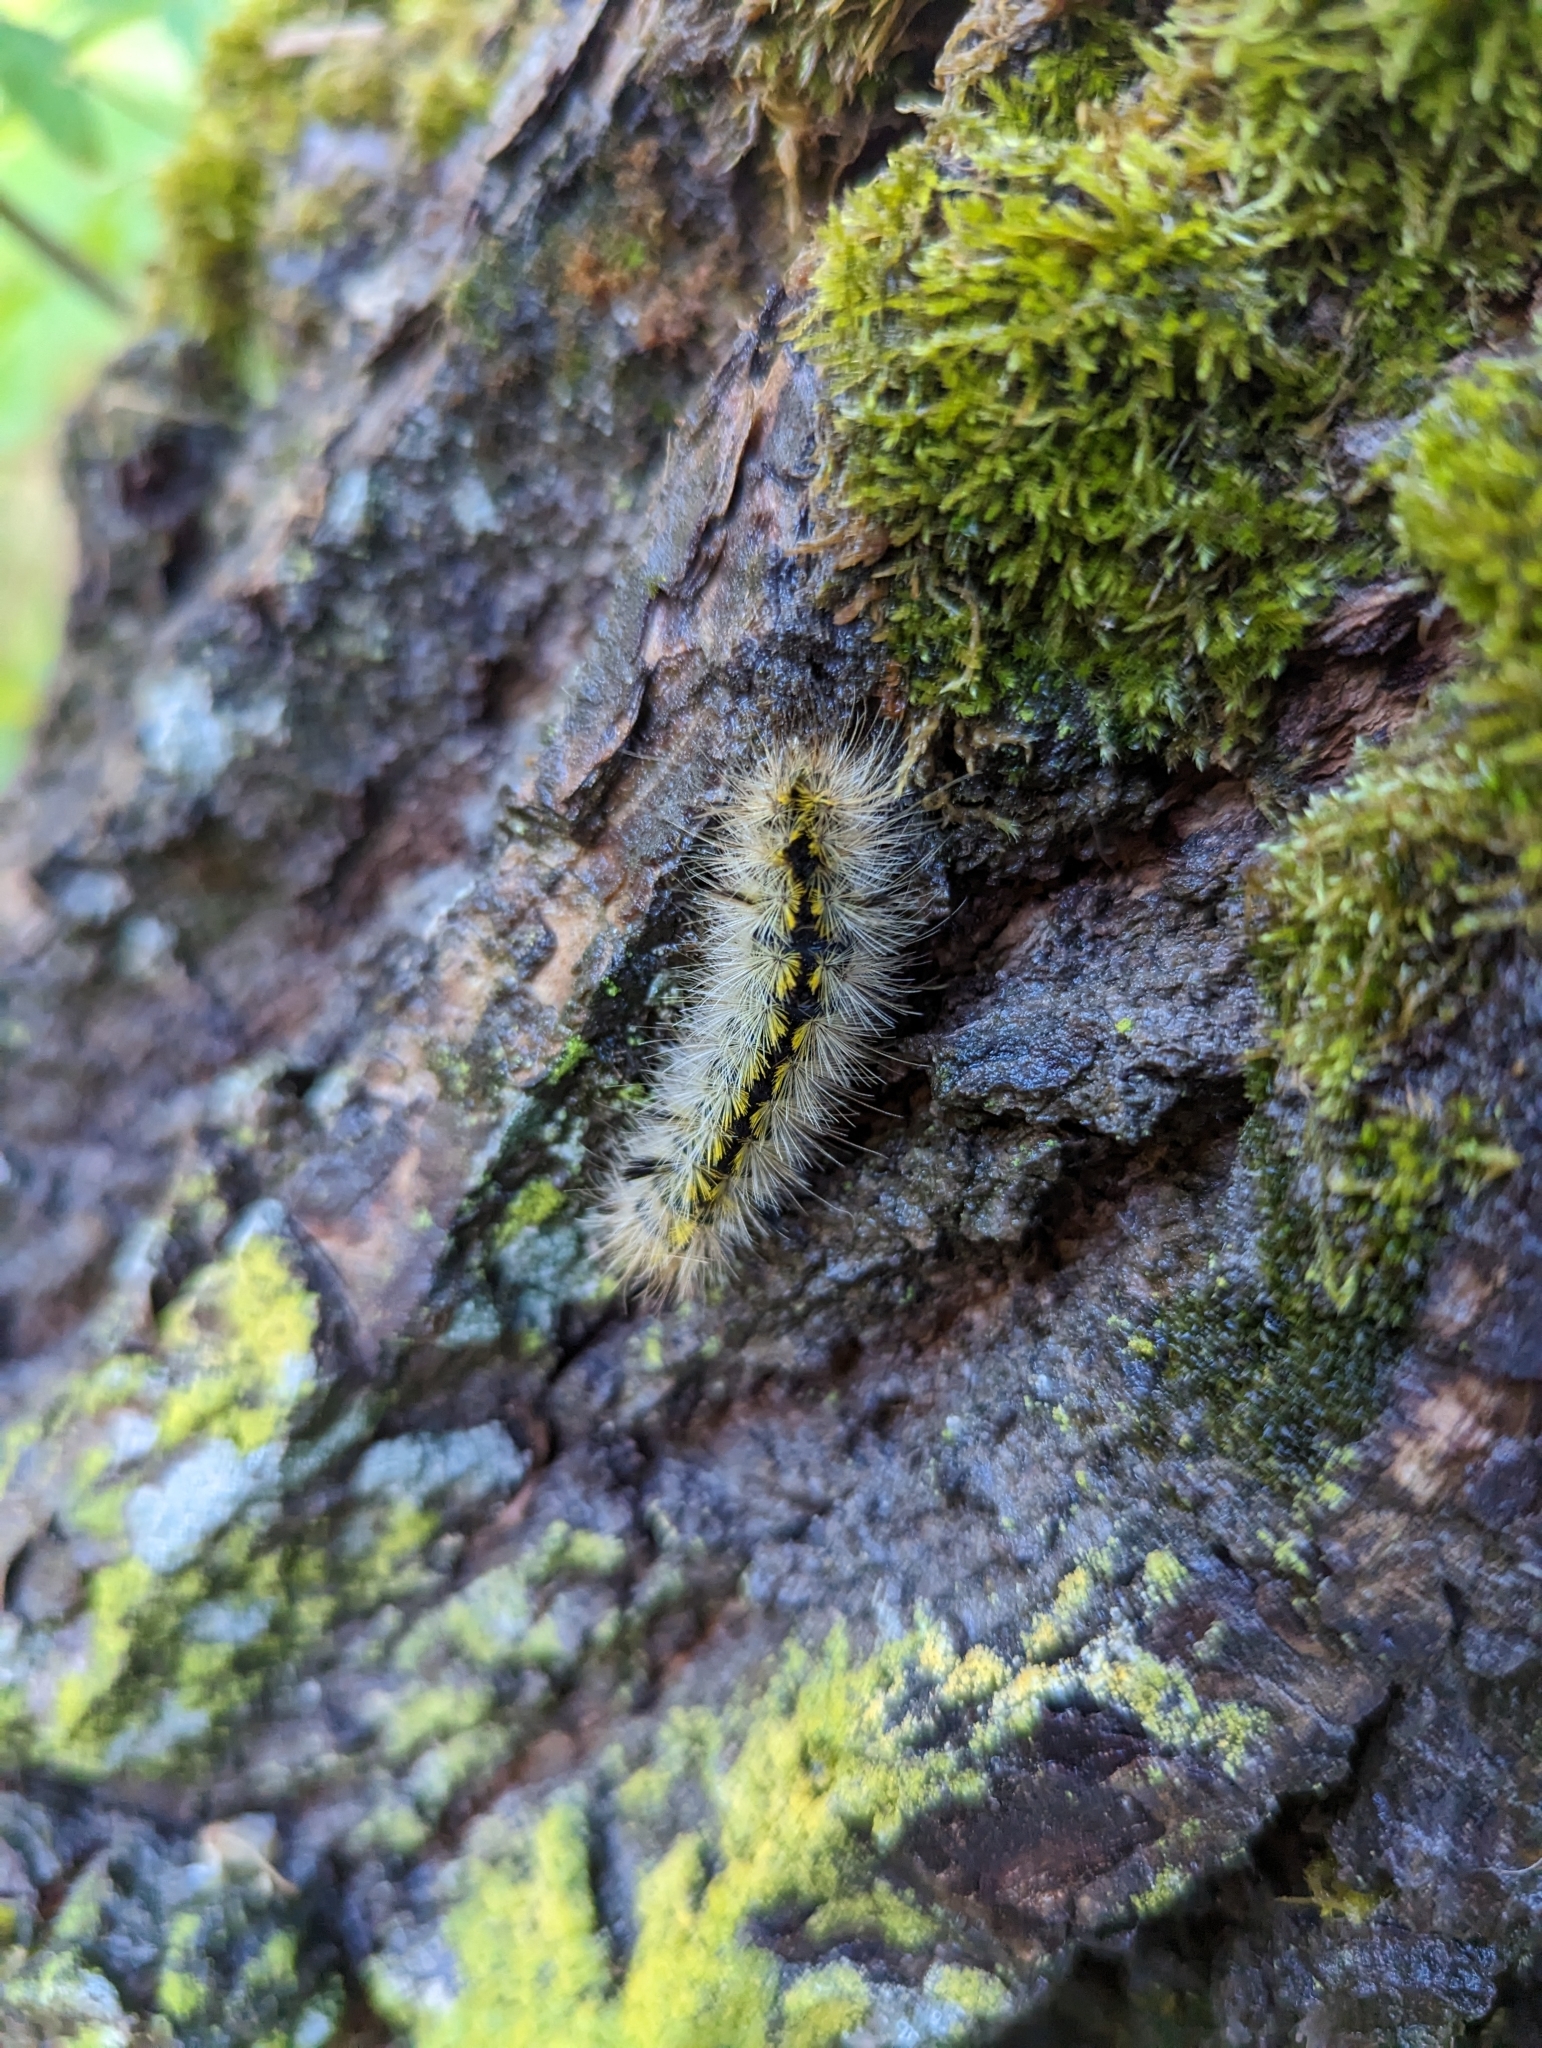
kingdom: Animalia
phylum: Arthropoda
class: Insecta
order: Lepidoptera
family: Erebidae
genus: Lophocampa
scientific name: Lophocampa argentata
